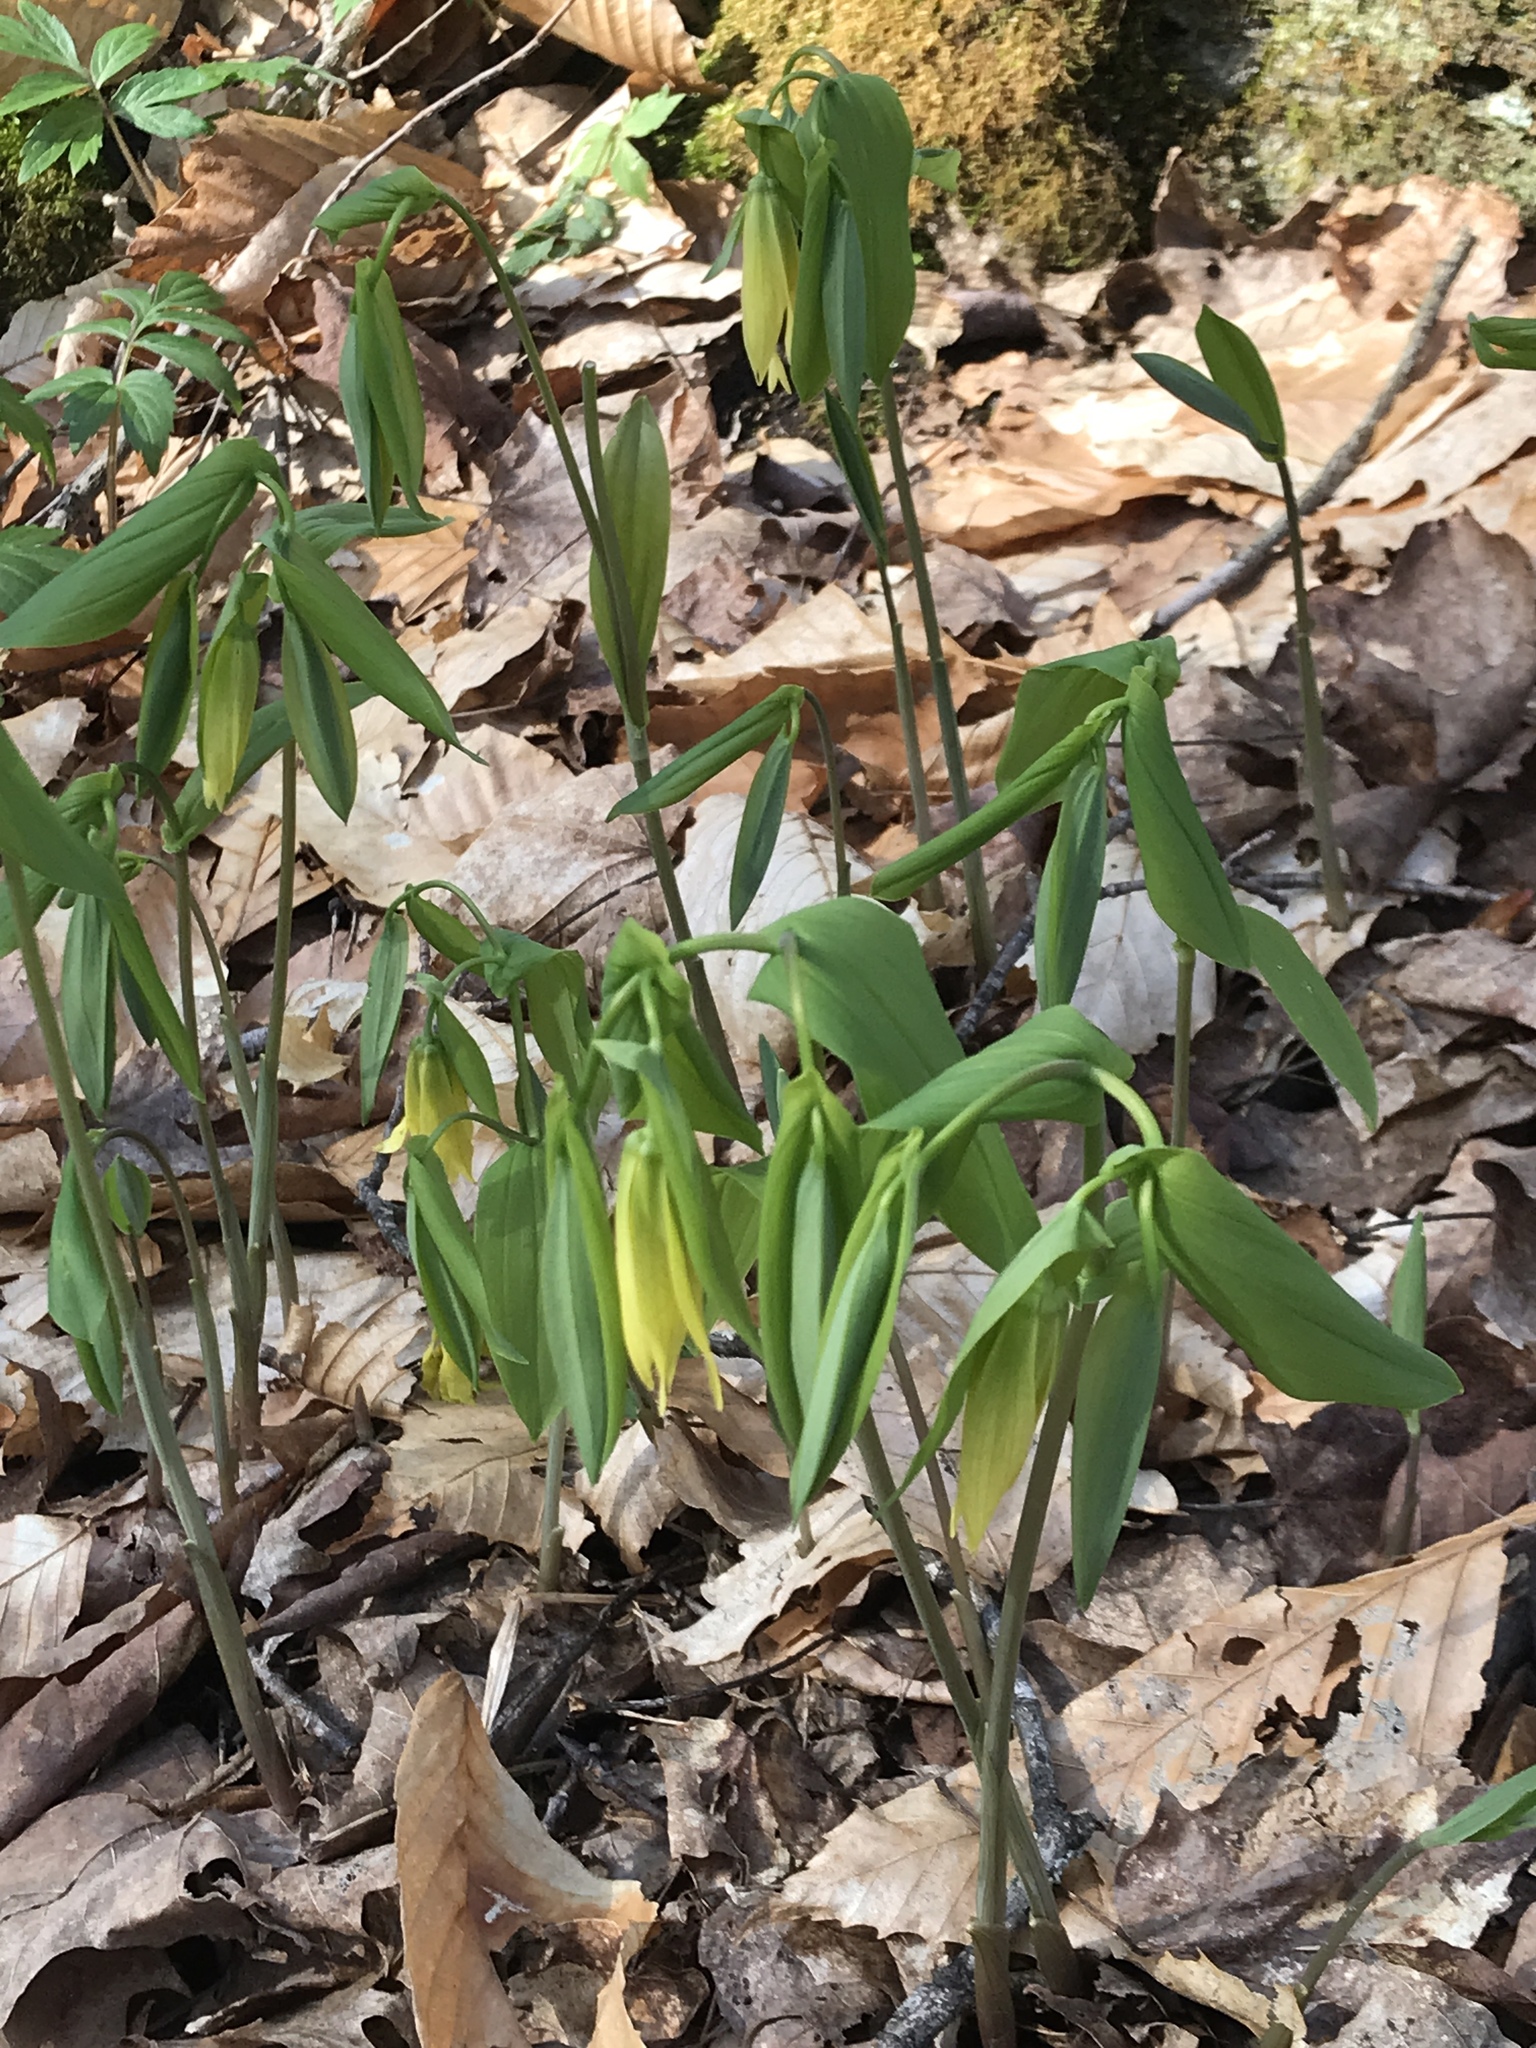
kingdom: Plantae
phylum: Tracheophyta
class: Liliopsida
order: Liliales
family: Colchicaceae
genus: Uvularia
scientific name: Uvularia grandiflora
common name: Bellwort
